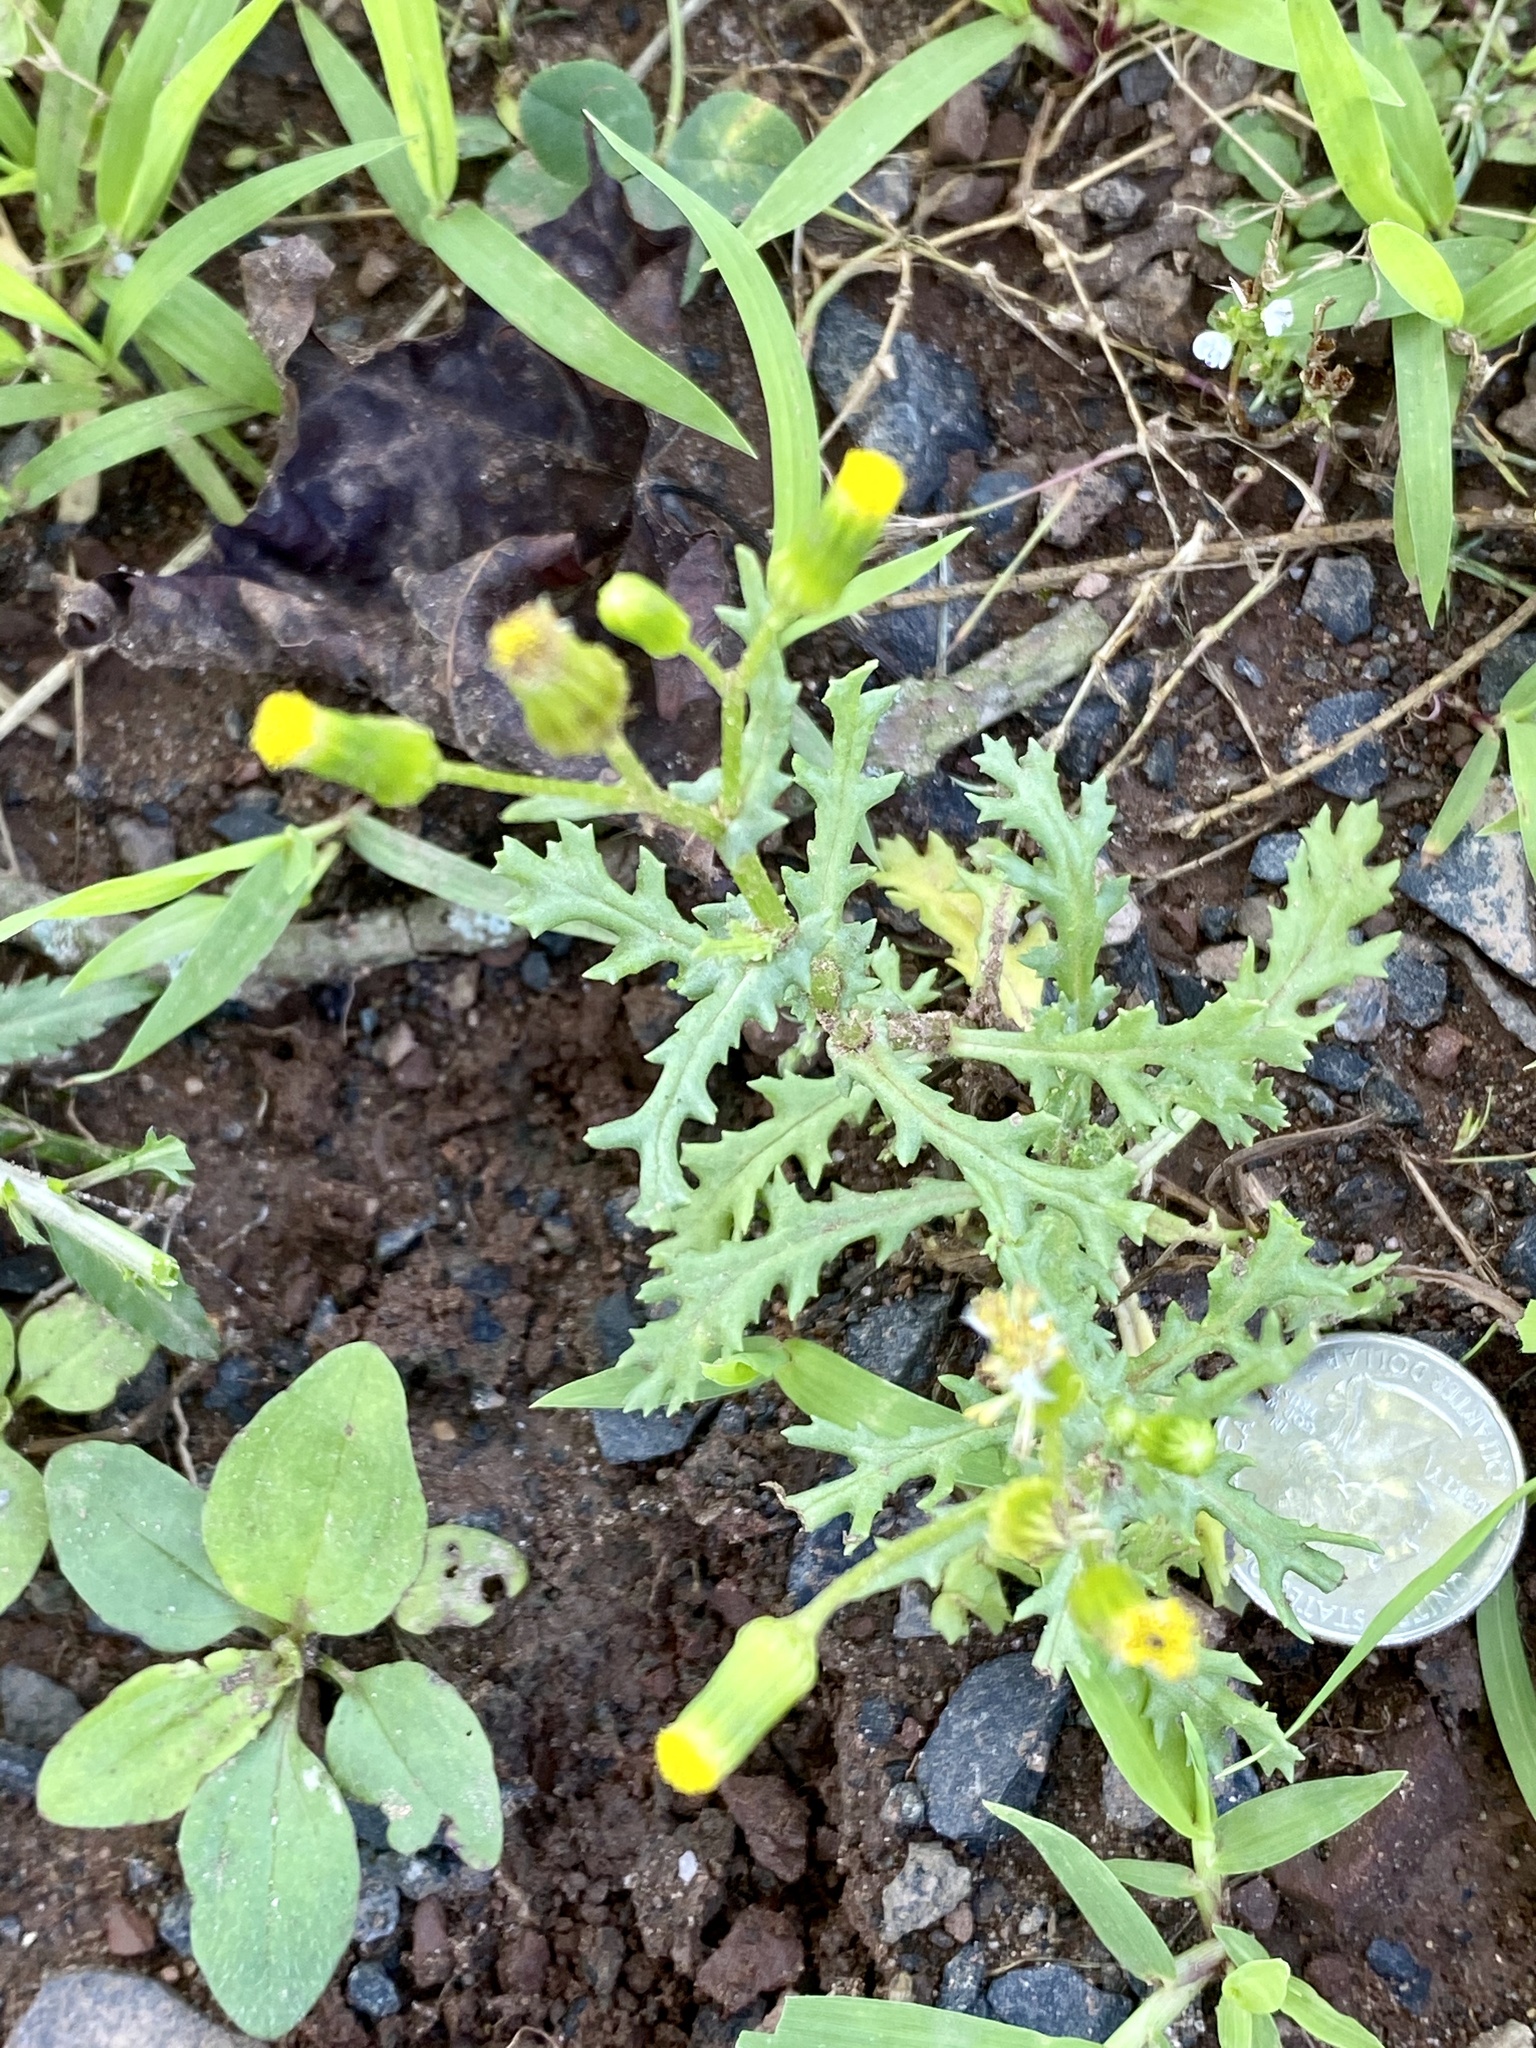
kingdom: Plantae
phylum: Tracheophyta
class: Magnoliopsida
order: Asterales
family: Asteraceae
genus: Senecio
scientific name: Senecio vulgaris
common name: Old-man-in-the-spring
